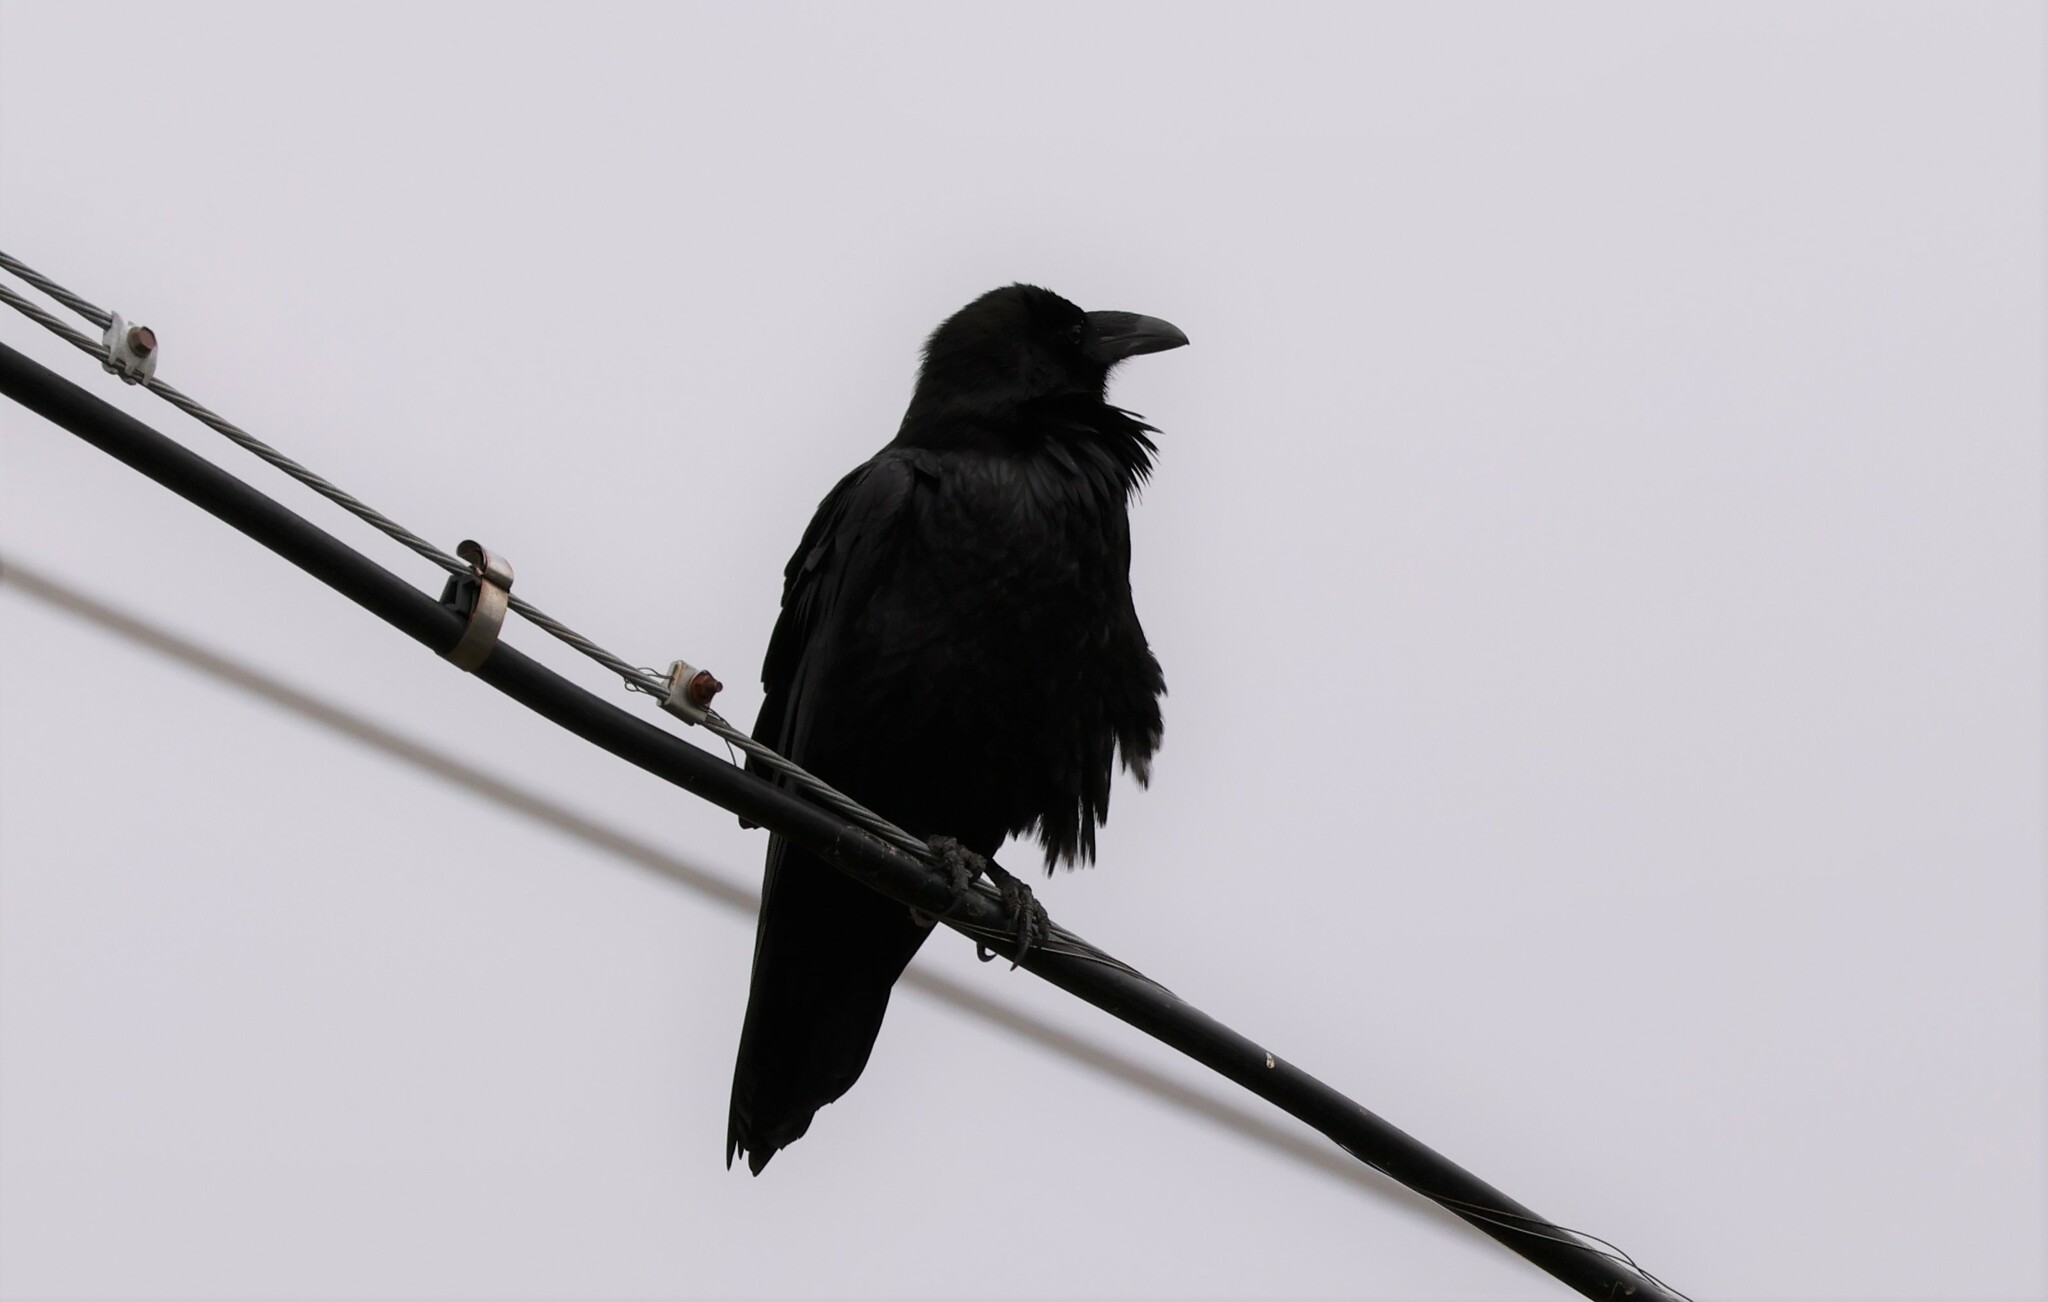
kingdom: Animalia
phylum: Chordata
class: Aves
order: Passeriformes
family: Corvidae
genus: Corvus
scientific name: Corvus corax
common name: Common raven
